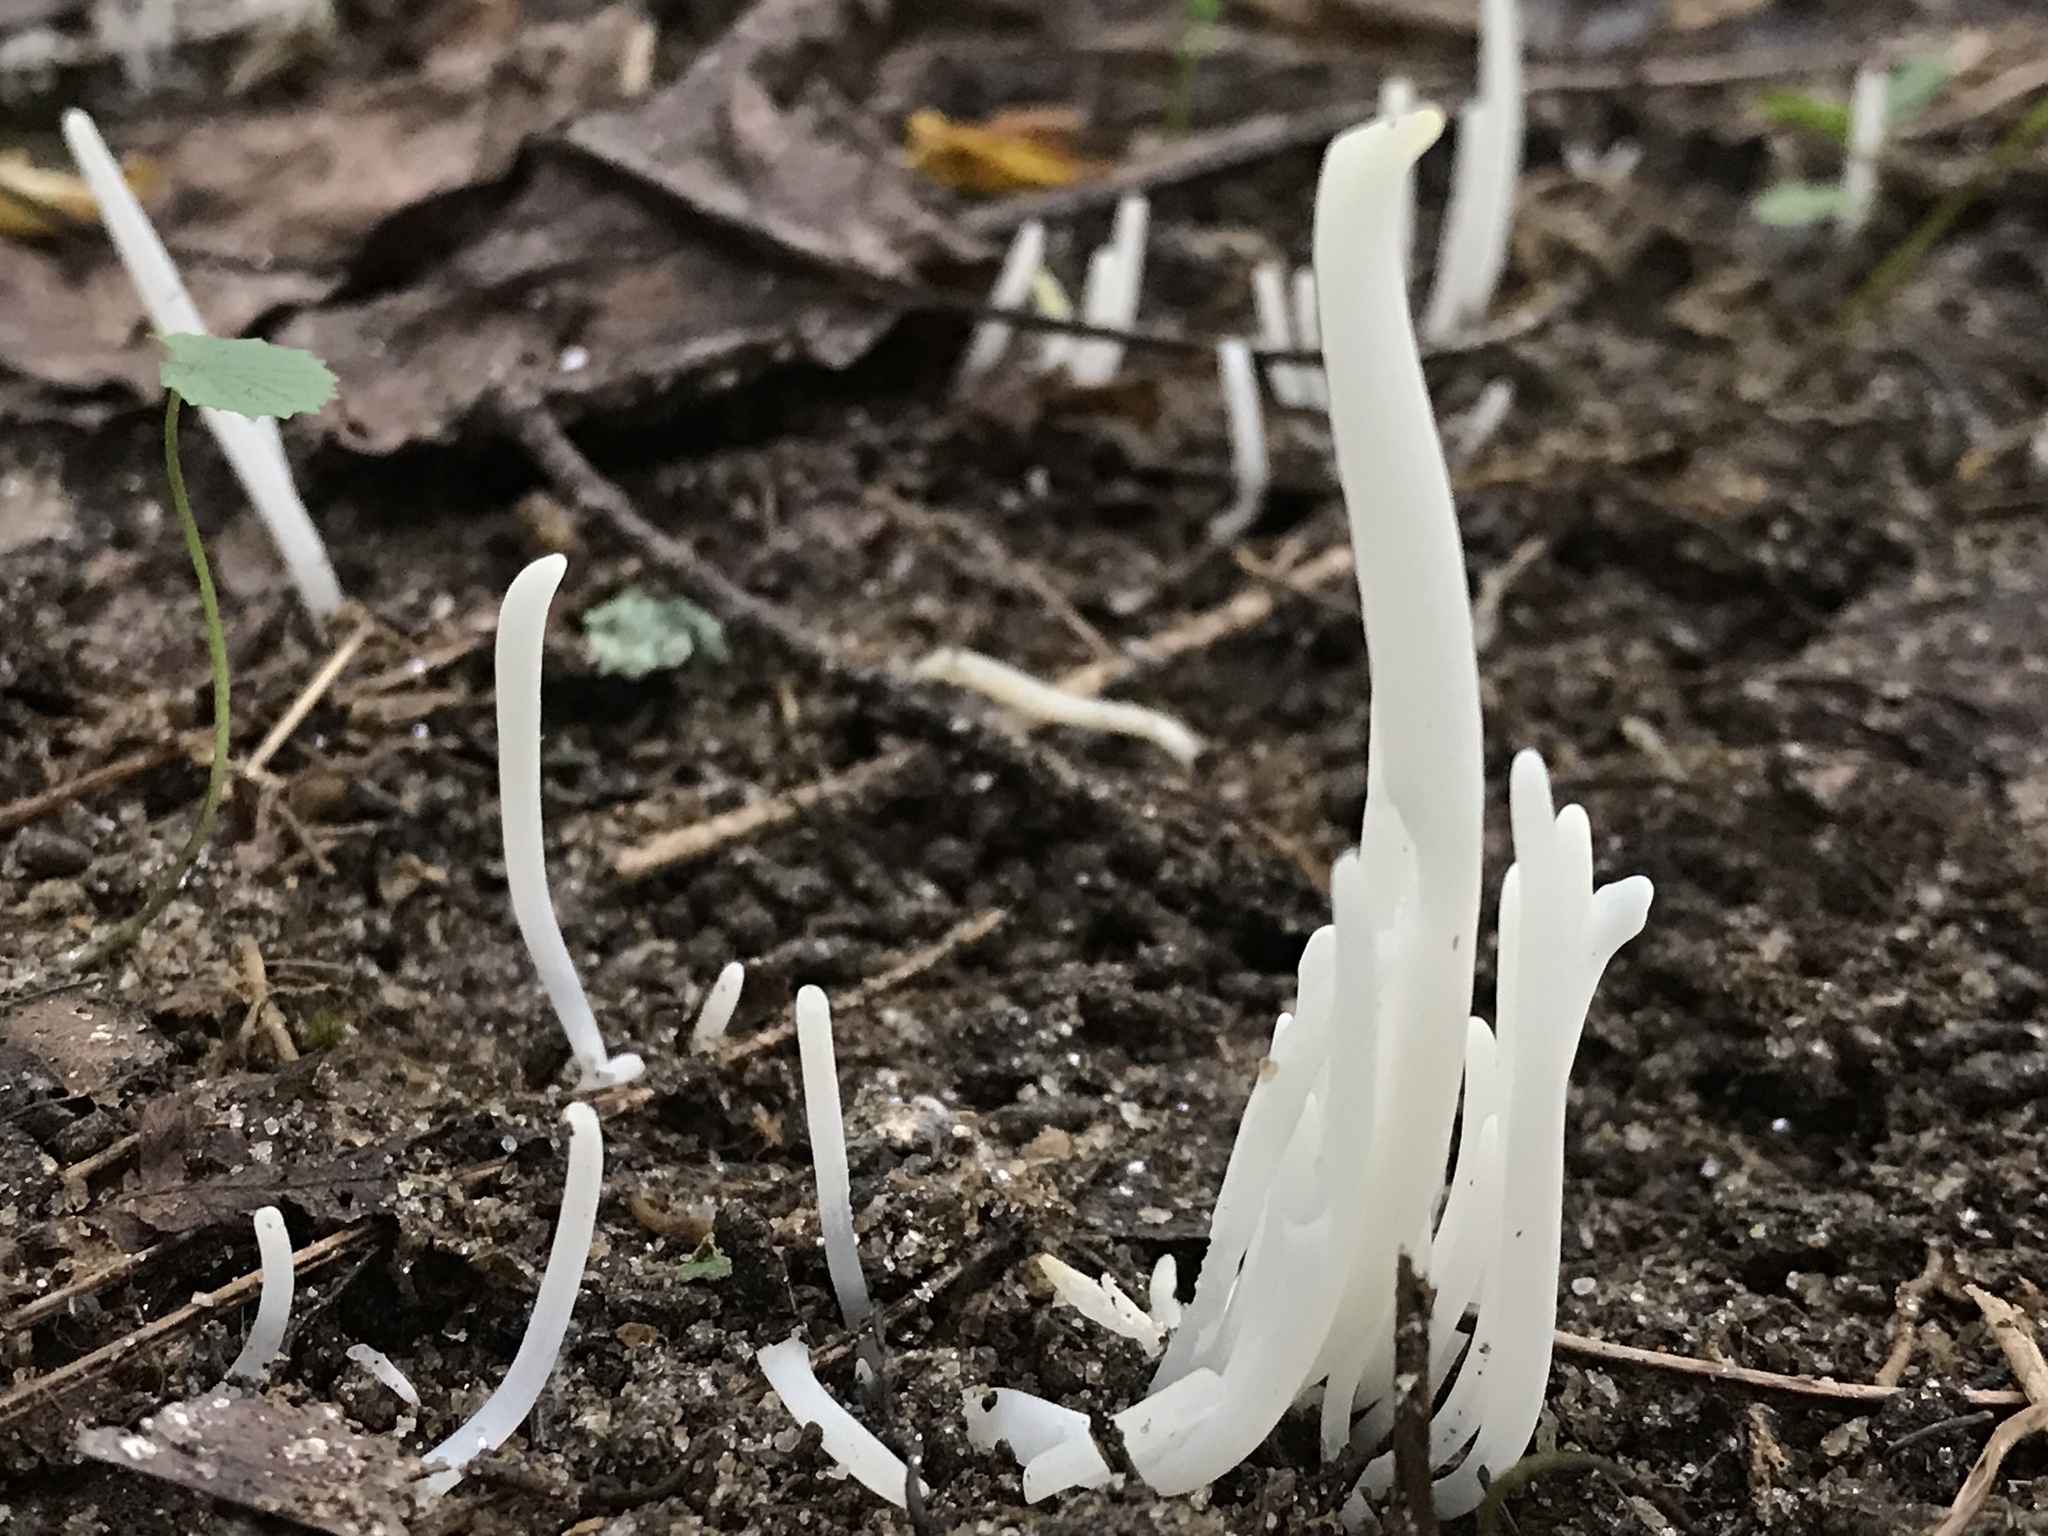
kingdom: Fungi
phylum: Basidiomycota
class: Agaricomycetes
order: Agaricales
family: Clavariaceae
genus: Clavaria
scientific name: Clavaria fragilis
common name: White spindles
